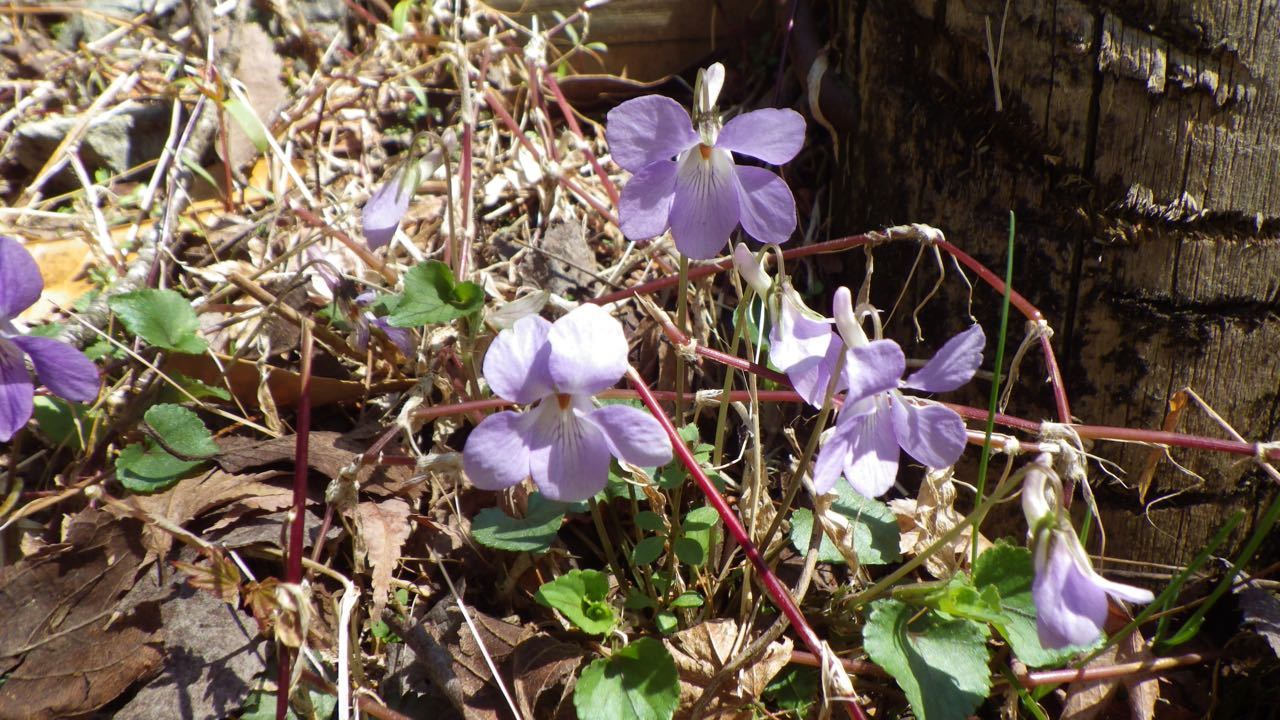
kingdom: Plantae
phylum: Tracheophyta
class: Magnoliopsida
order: Malpighiales
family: Violaceae
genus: Viola
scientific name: Viola grypoceras
